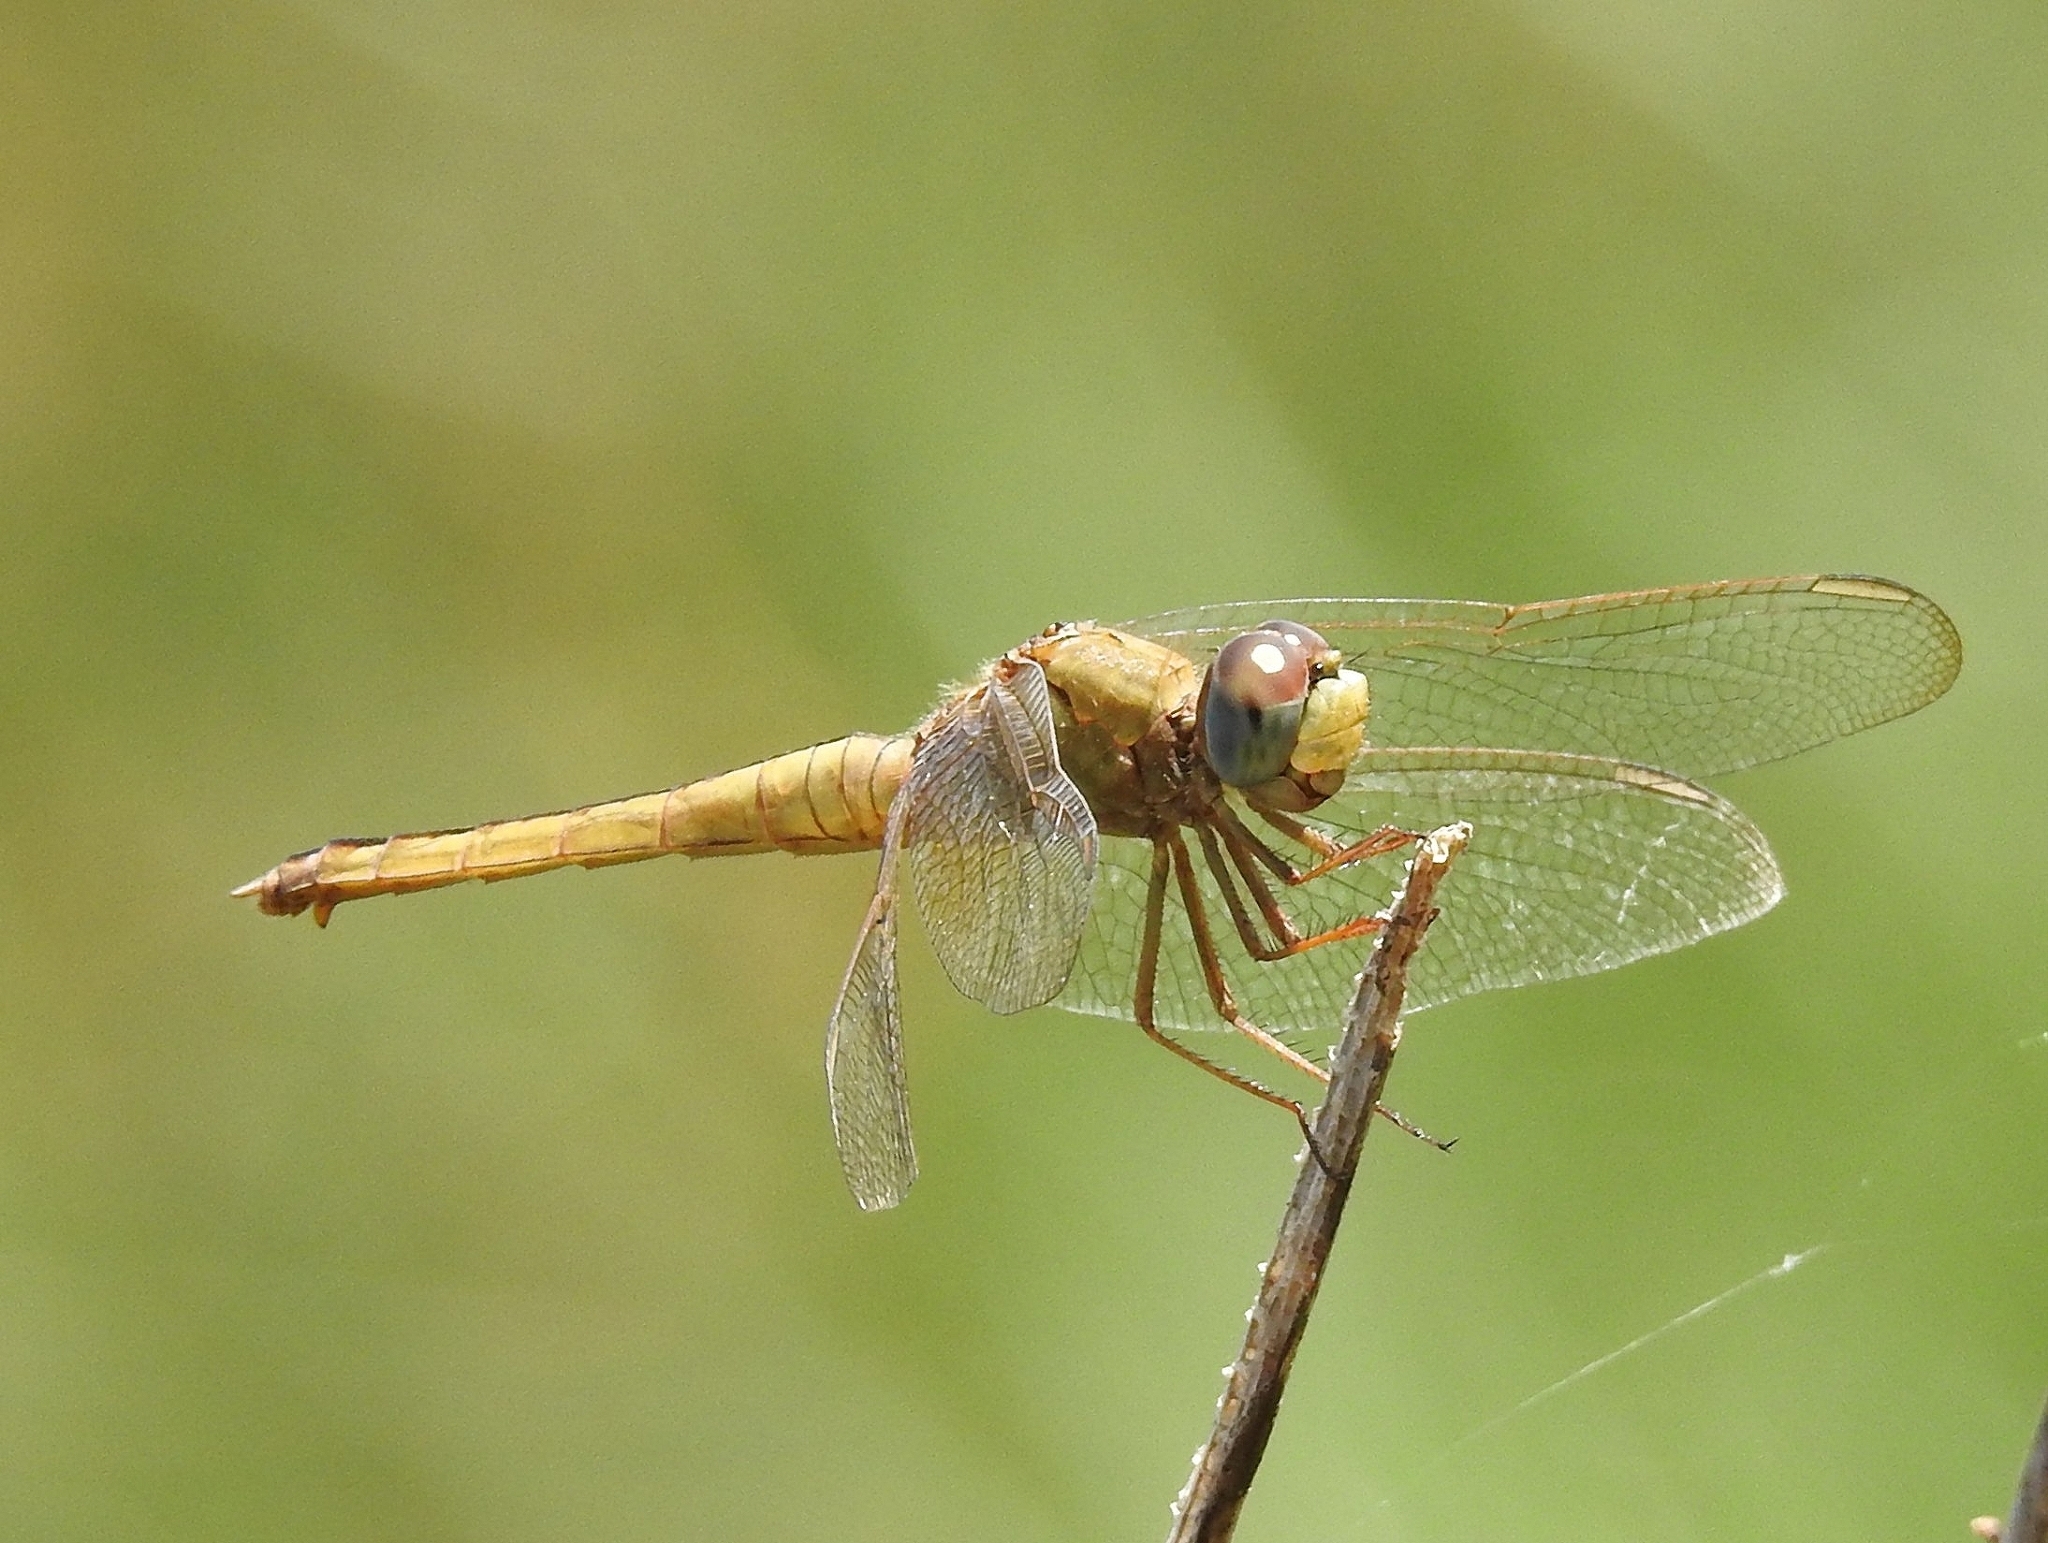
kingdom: Animalia
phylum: Arthropoda
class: Insecta
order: Odonata
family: Libellulidae
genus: Crocothemis
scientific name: Crocothemis servilia
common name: Scarlet skimmer
